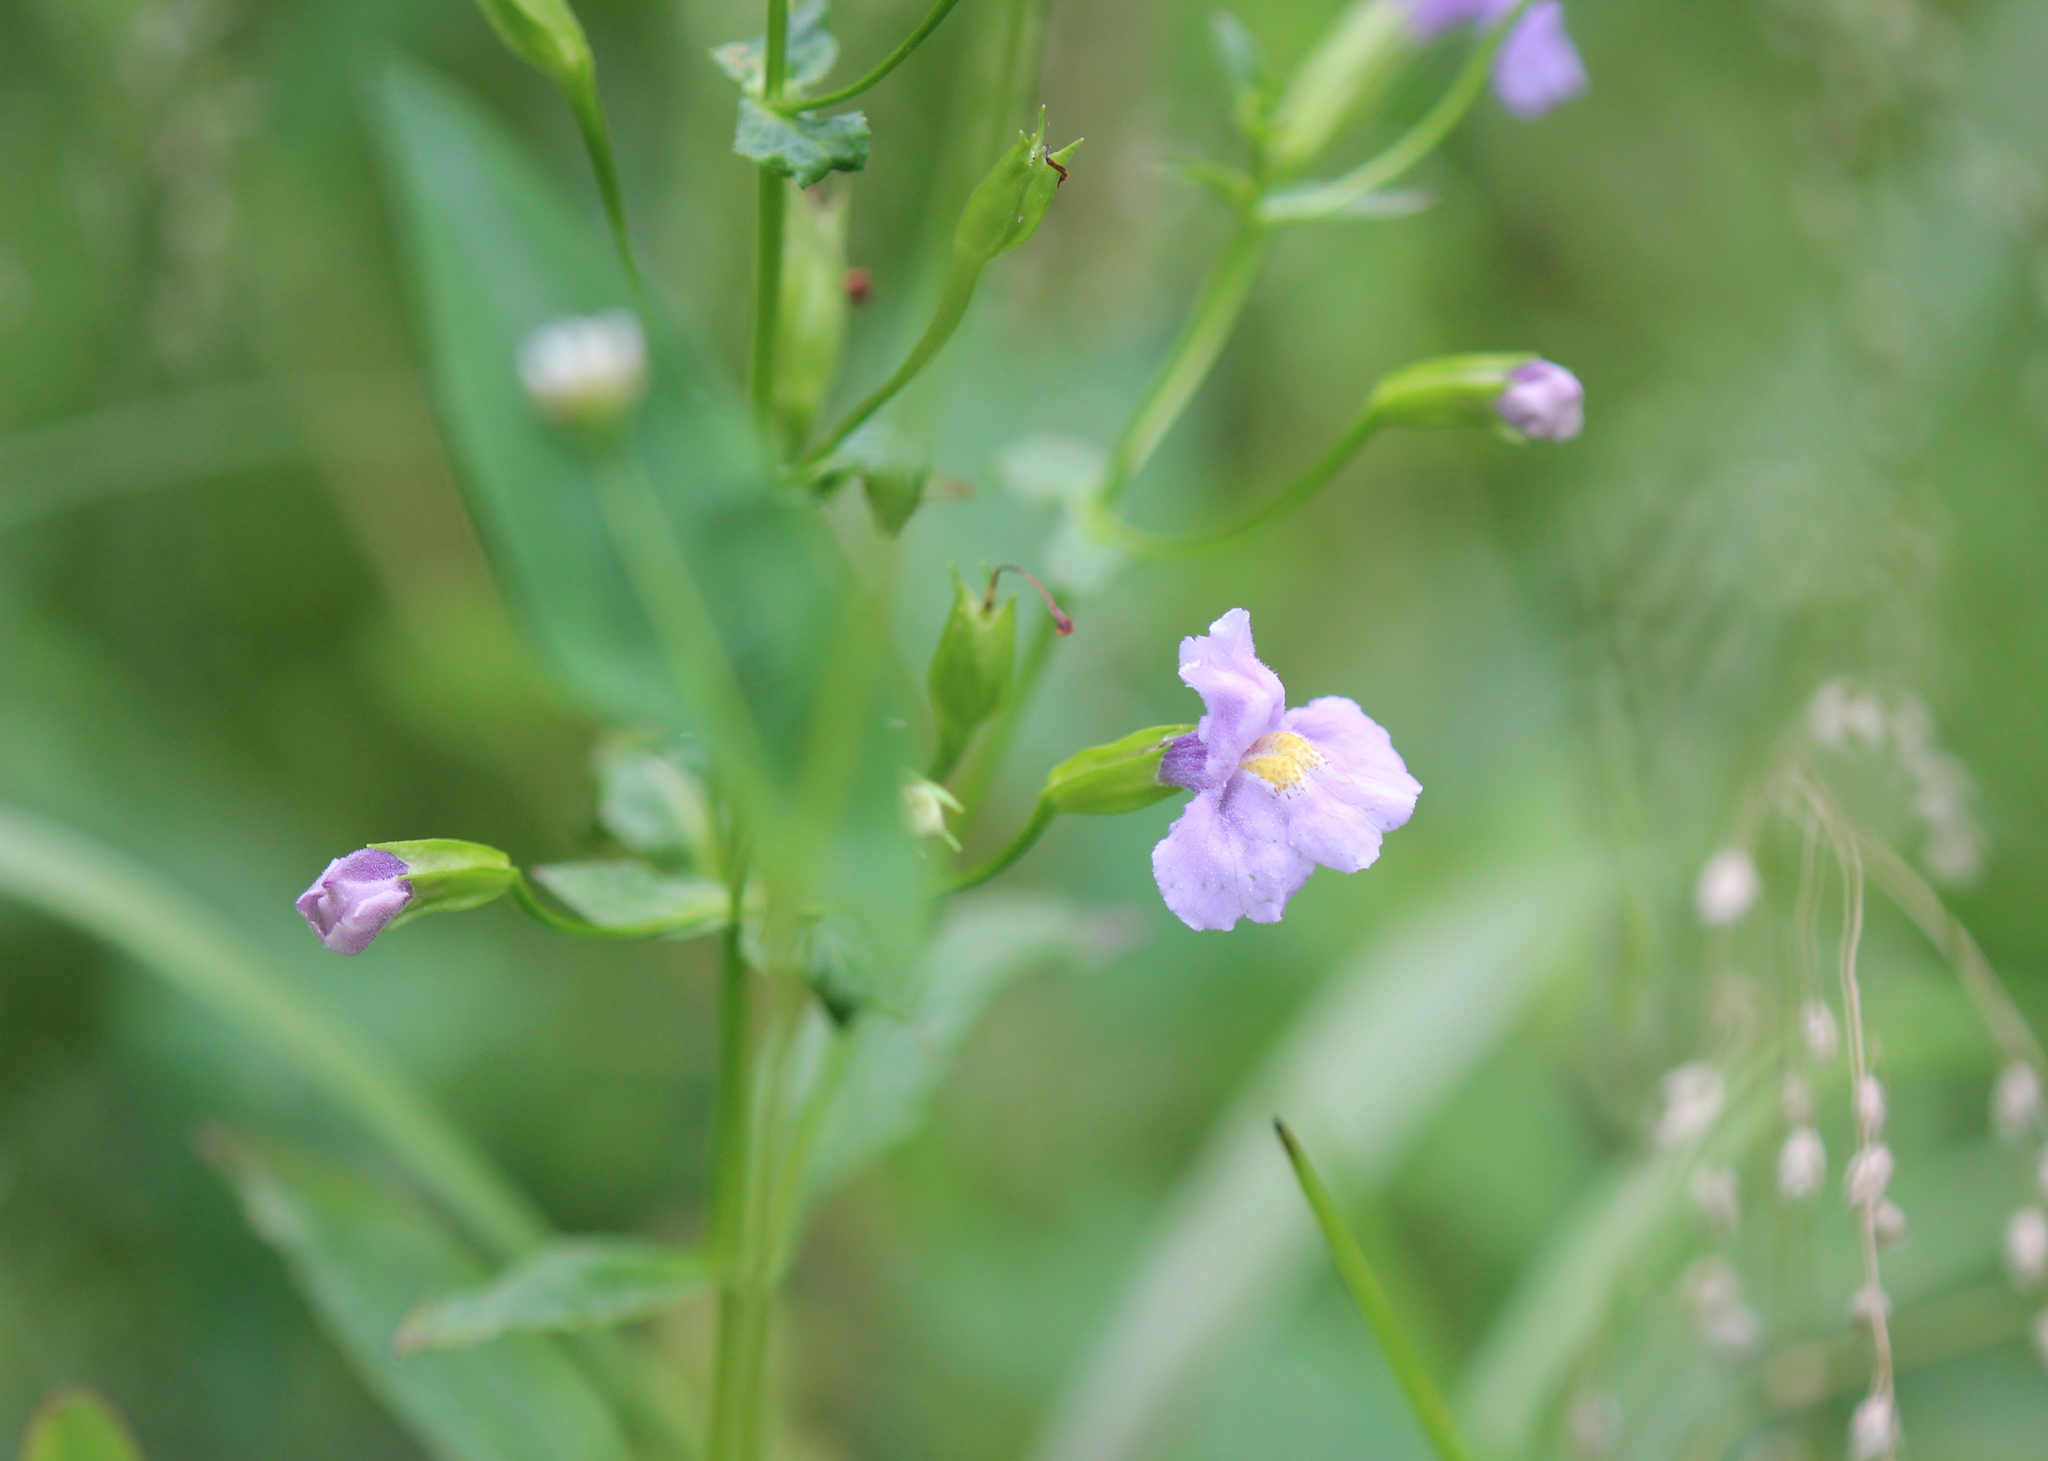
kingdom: Plantae
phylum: Tracheophyta
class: Magnoliopsida
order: Lamiales
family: Phrymaceae
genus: Mimulus
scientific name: Mimulus ringens
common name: Allegheny monkeyflower
